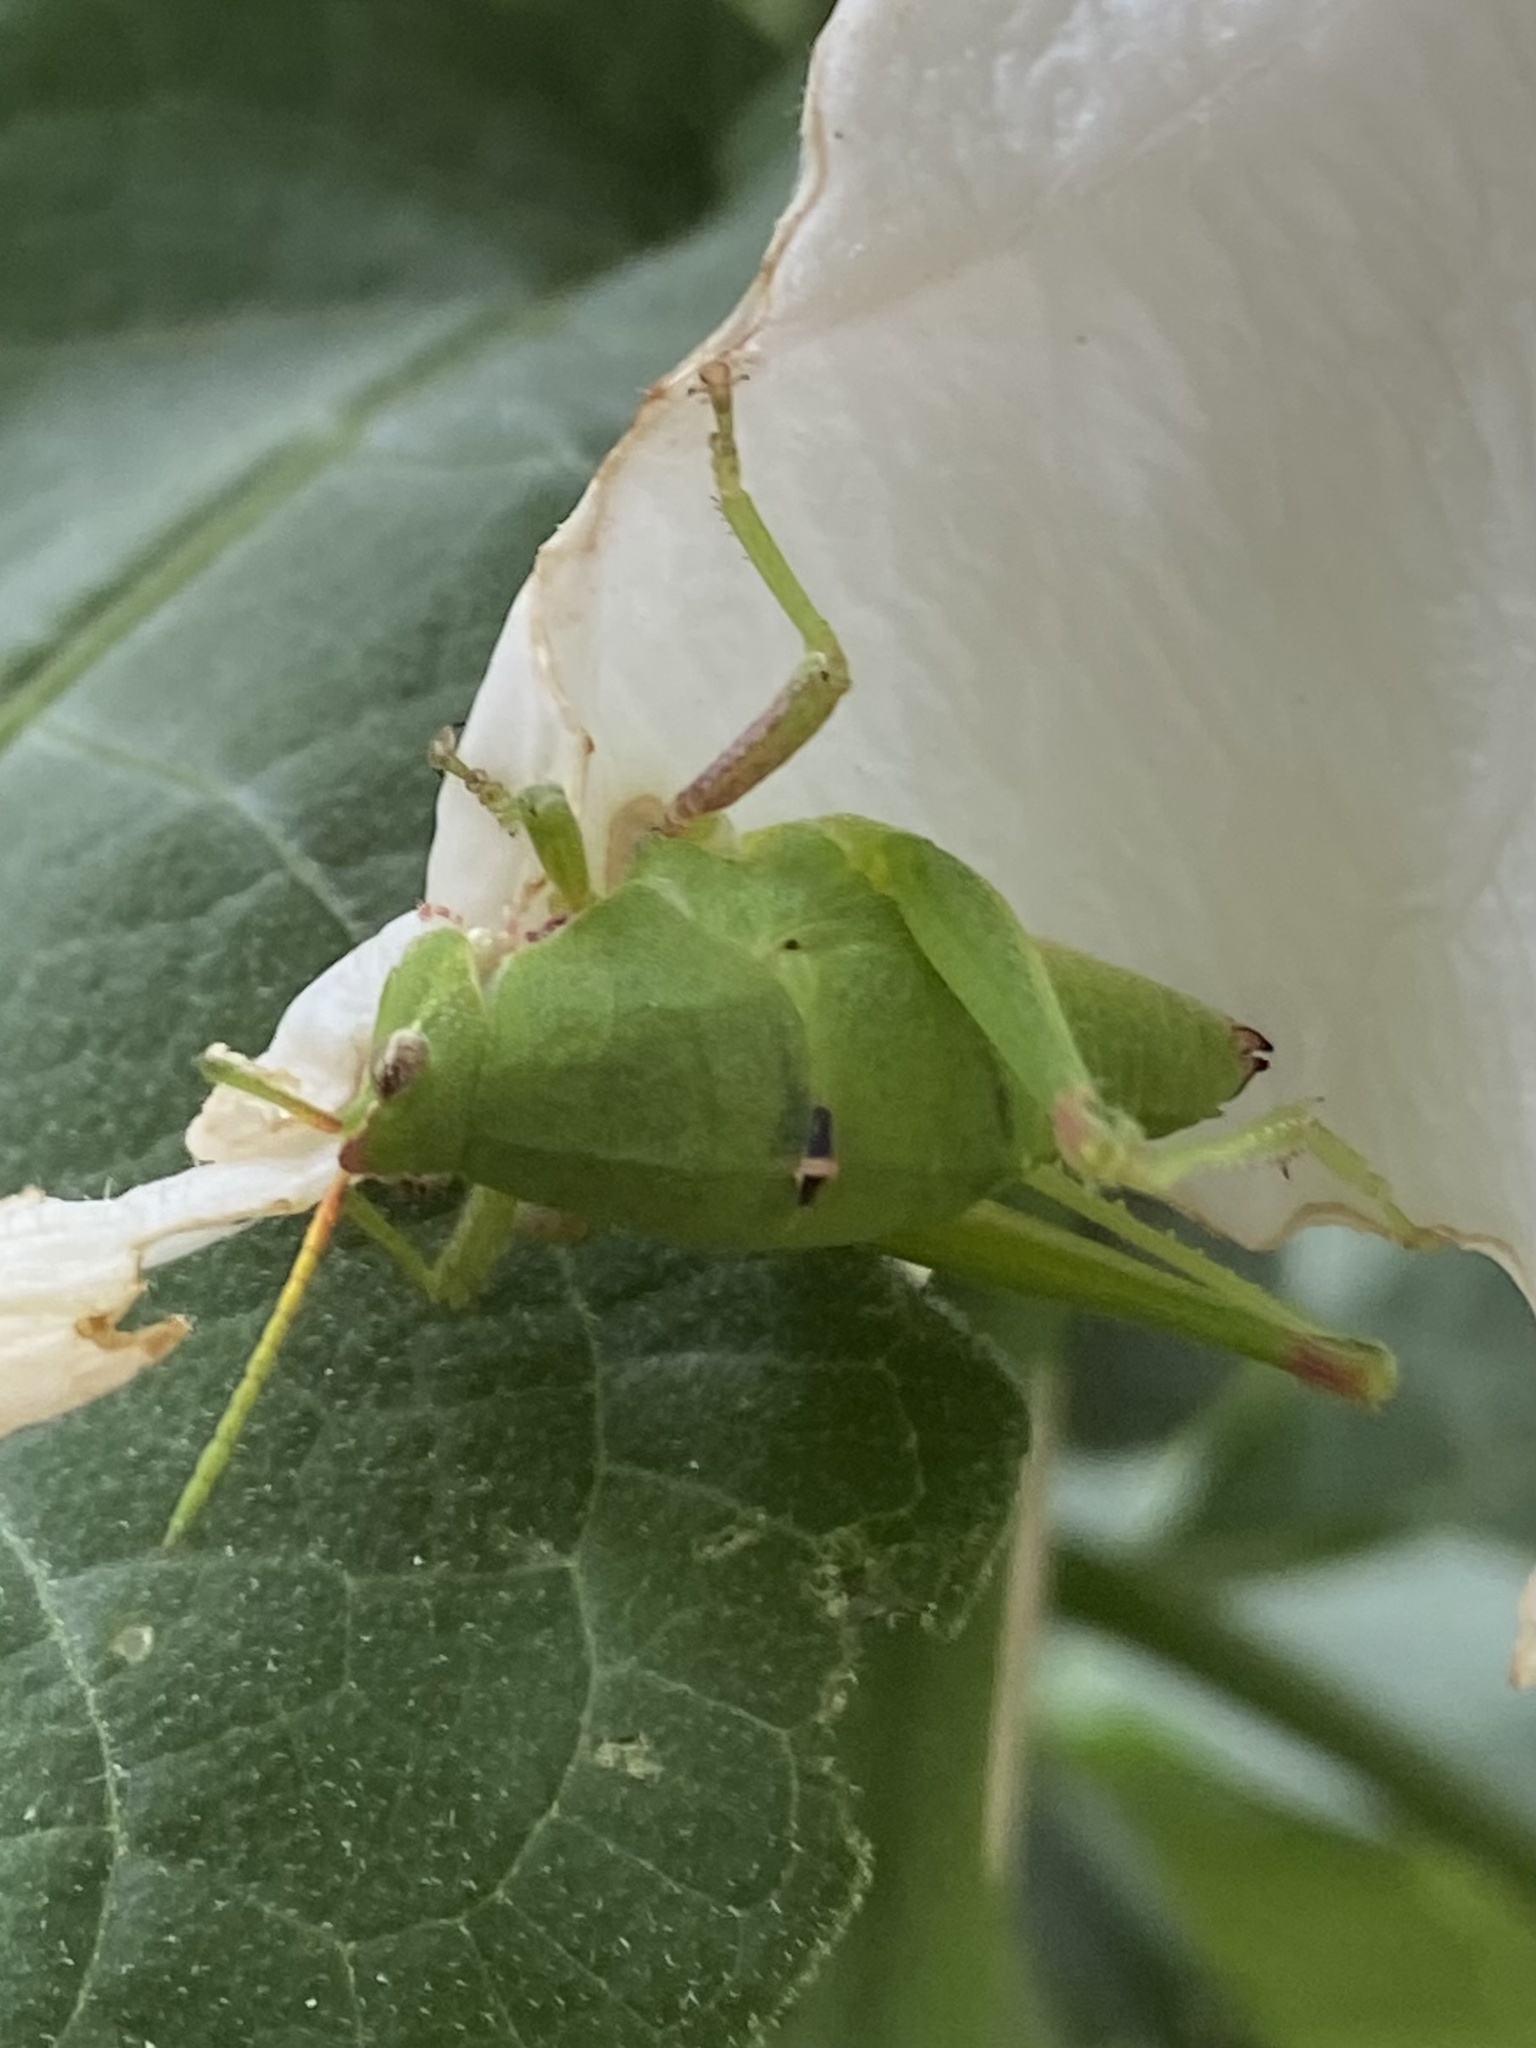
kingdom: Animalia
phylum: Arthropoda
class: Insecta
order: Orthoptera
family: Pyrgomorphidae
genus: Sphenarium
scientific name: Sphenarium
